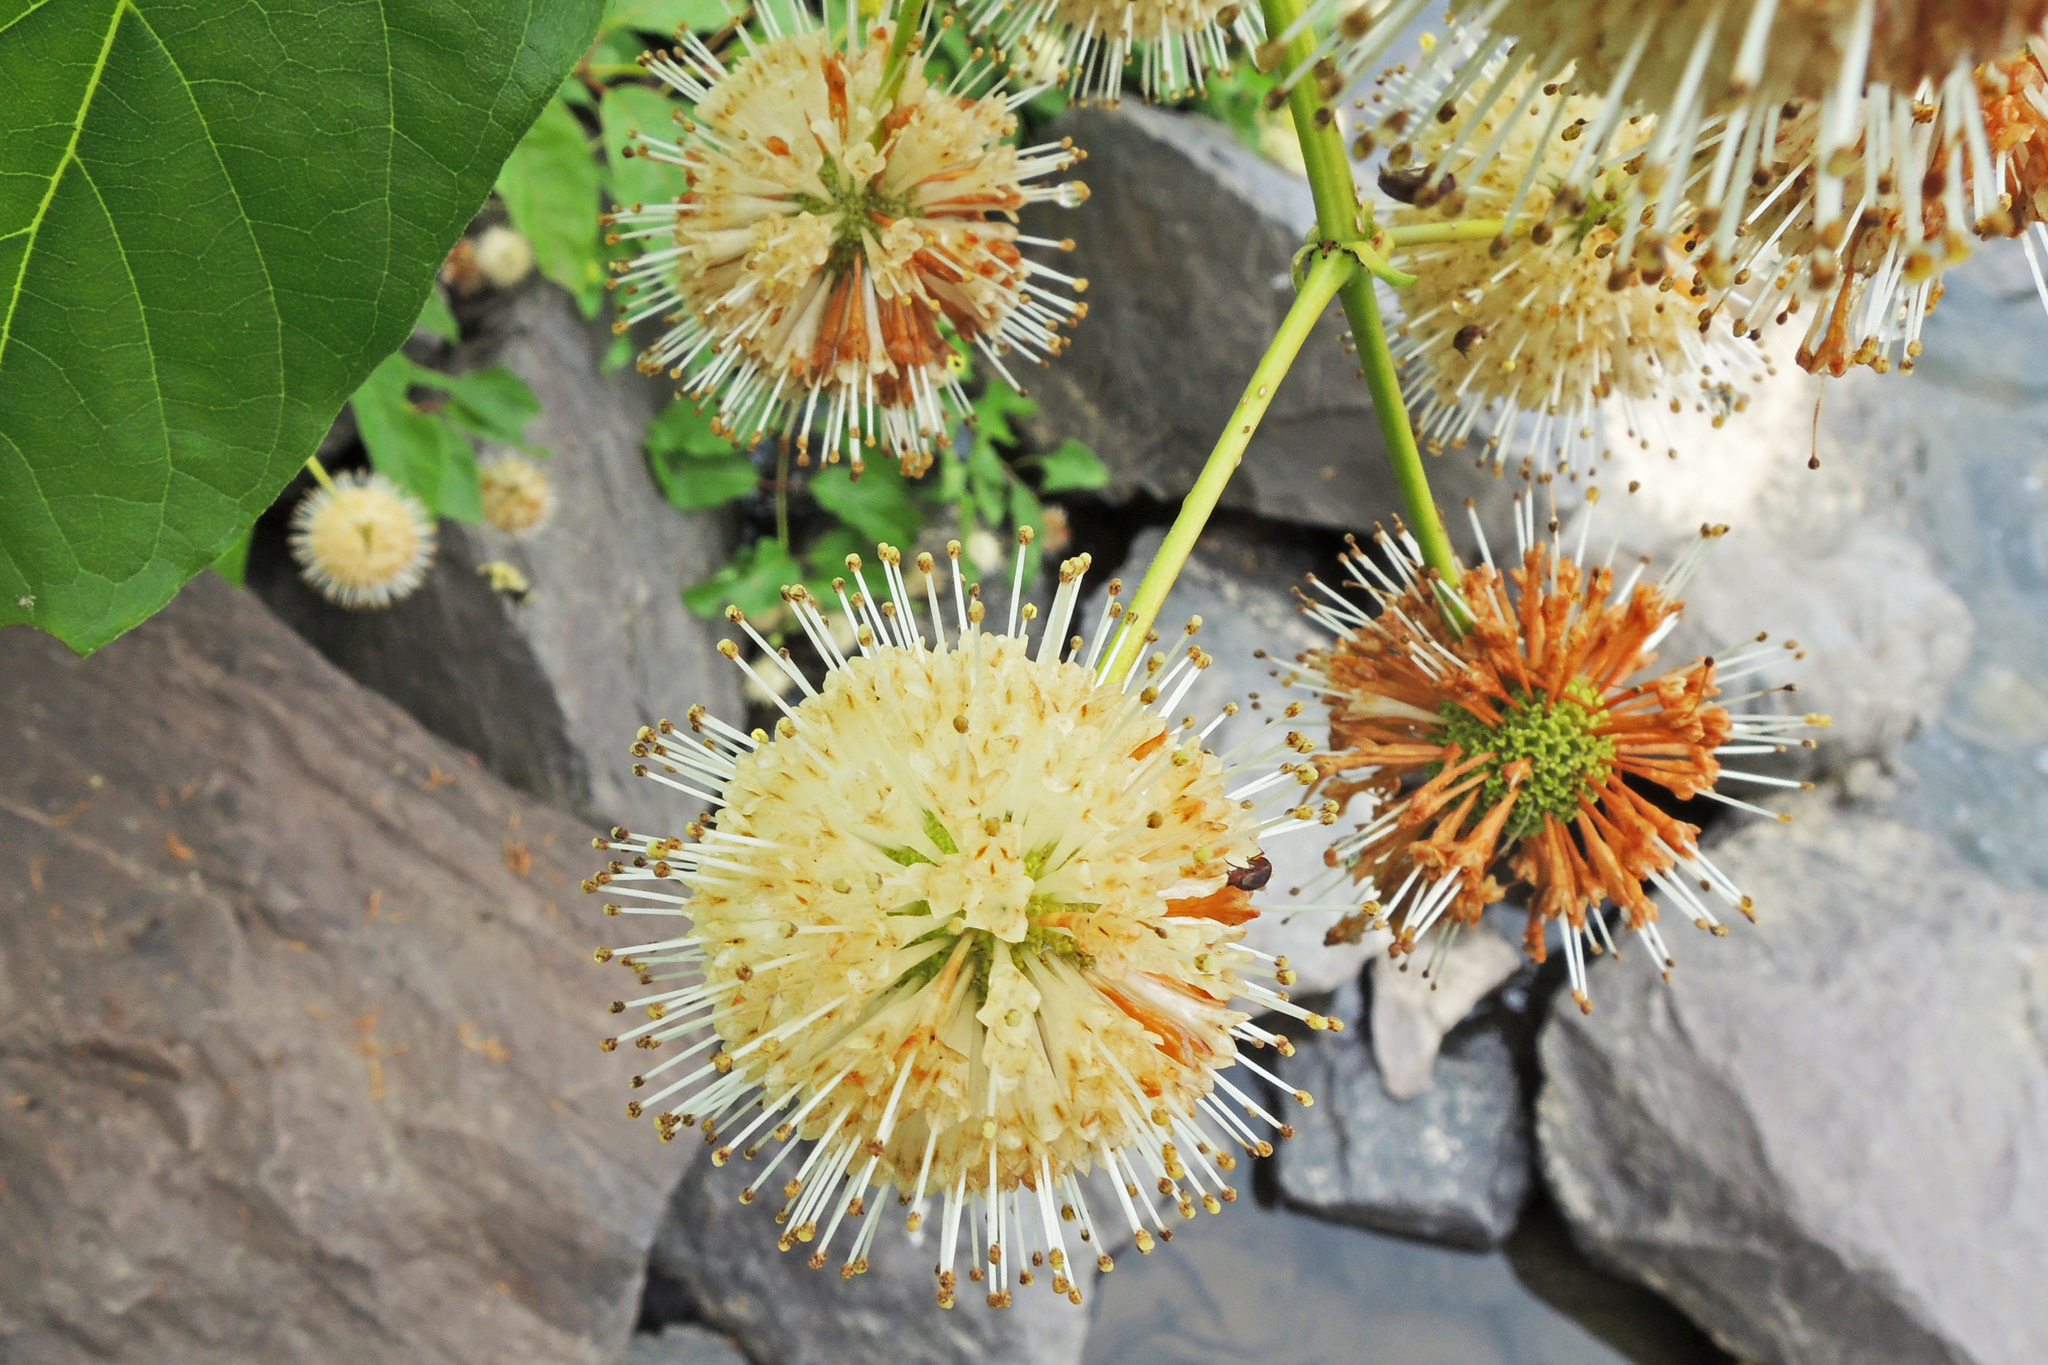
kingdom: Plantae
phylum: Tracheophyta
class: Magnoliopsida
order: Gentianales
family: Rubiaceae
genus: Cephalanthus
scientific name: Cephalanthus occidentalis
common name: Button-willow
